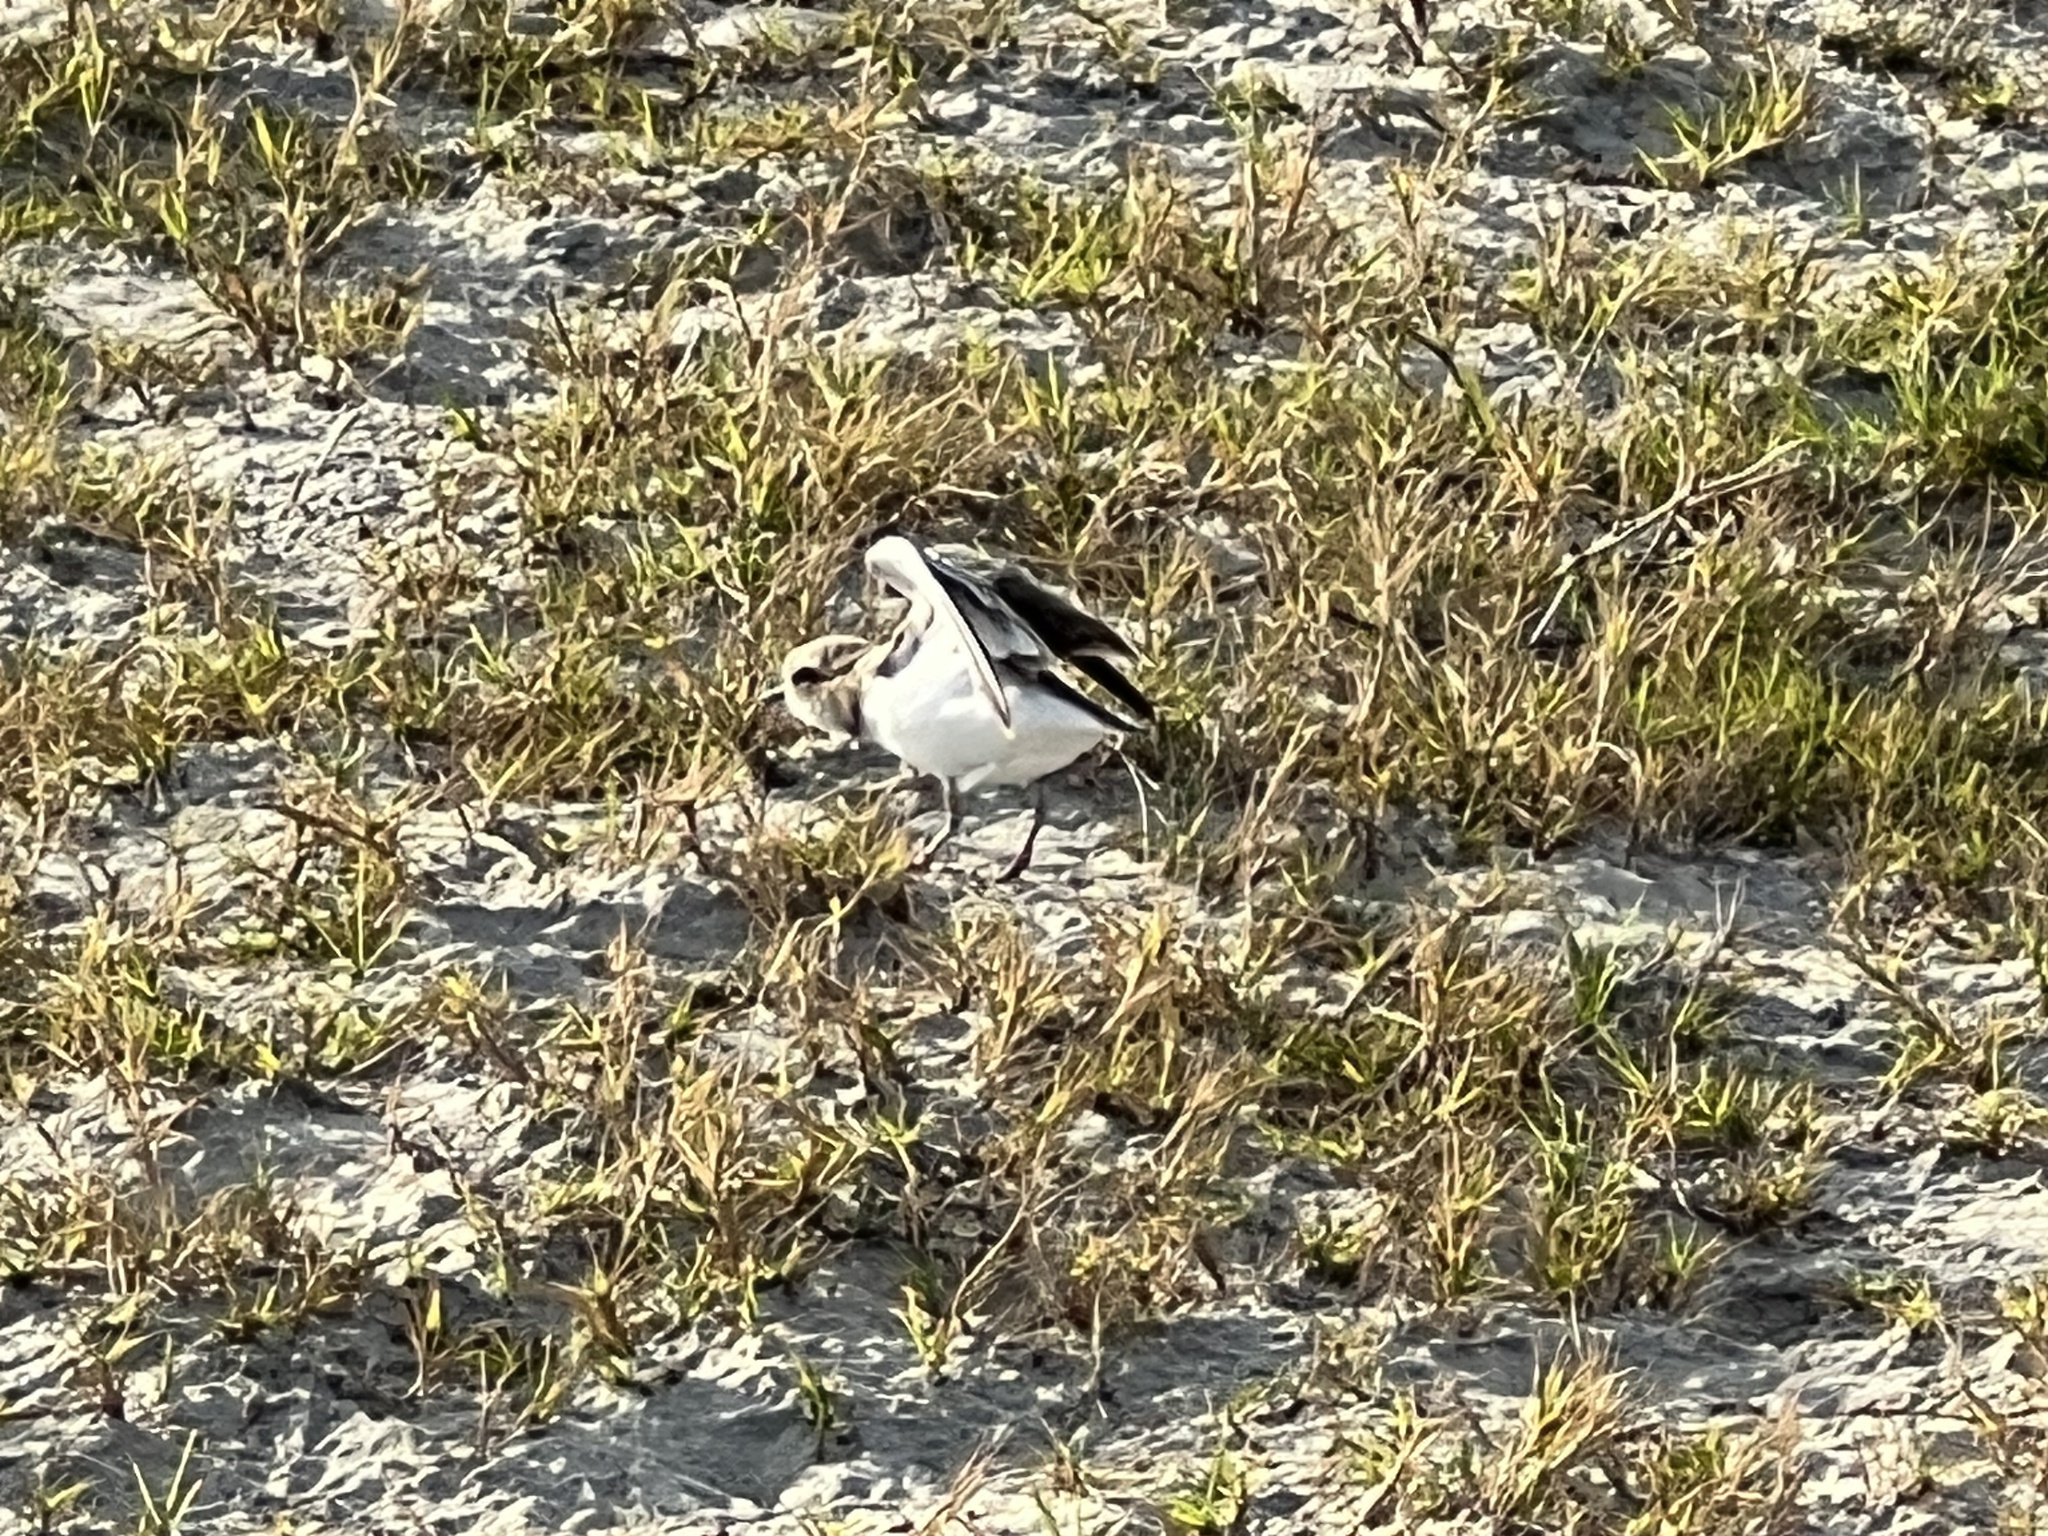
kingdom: Animalia
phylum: Chordata
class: Aves
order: Charadriiformes
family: Charadriidae
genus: Charadrius
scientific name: Charadrius semipalmatus
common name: Semipalmated plover
